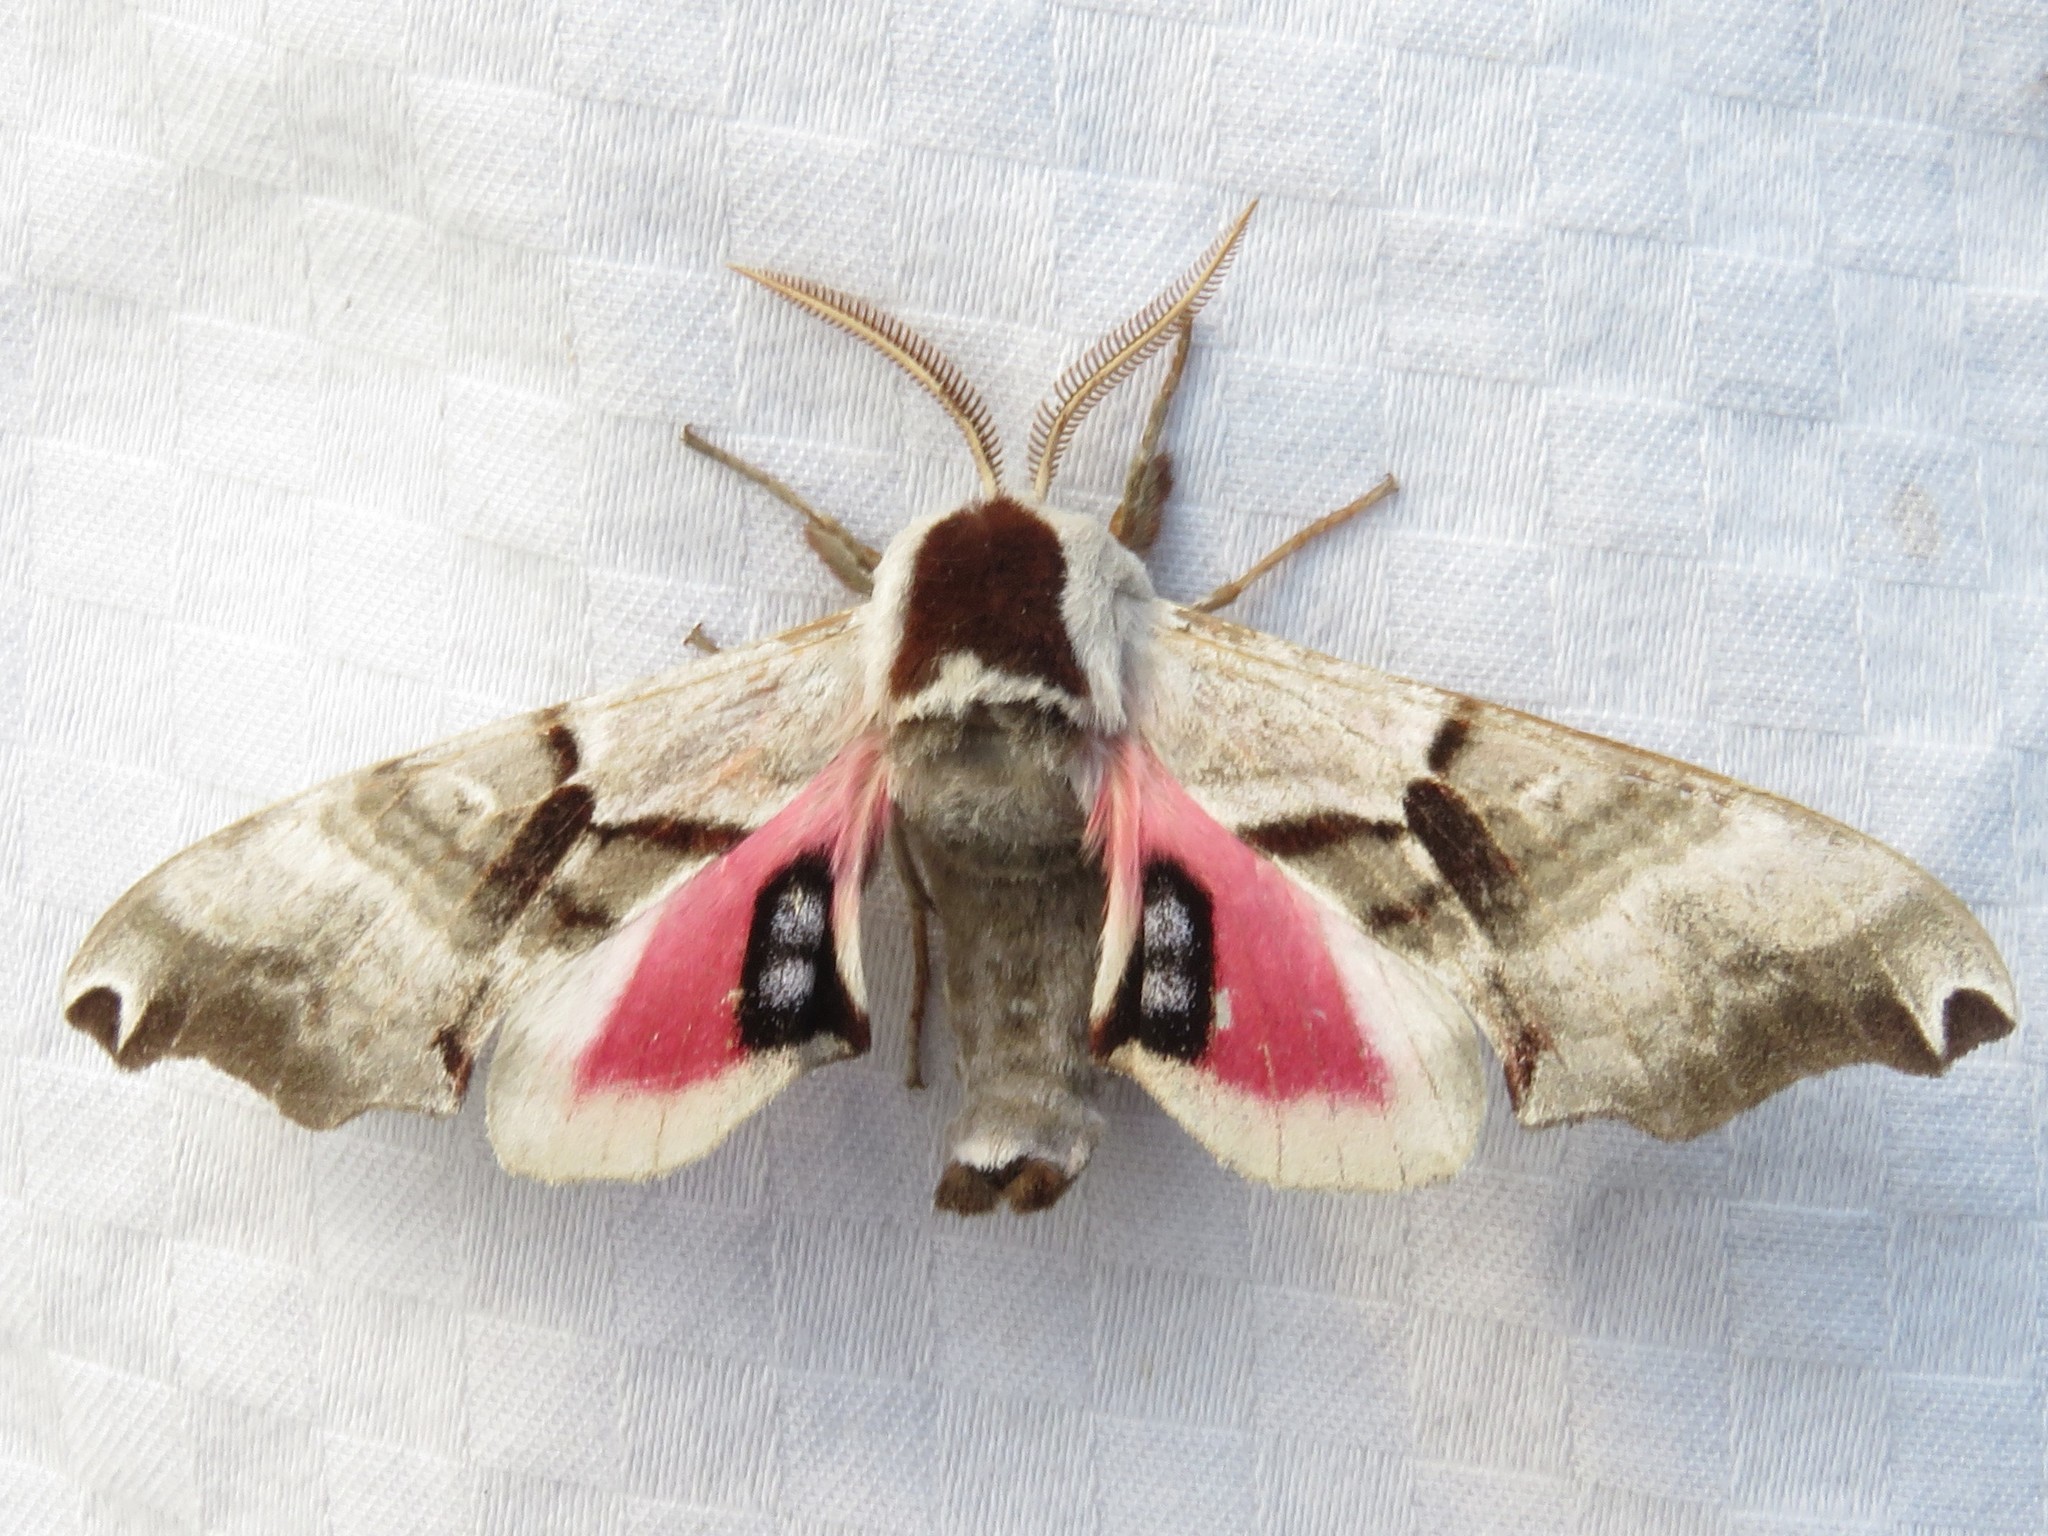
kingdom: Animalia
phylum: Arthropoda
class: Insecta
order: Lepidoptera
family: Sphingidae
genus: Smerinthus
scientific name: Smerinthus jamaicensis
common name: Twin spotted sphinx
